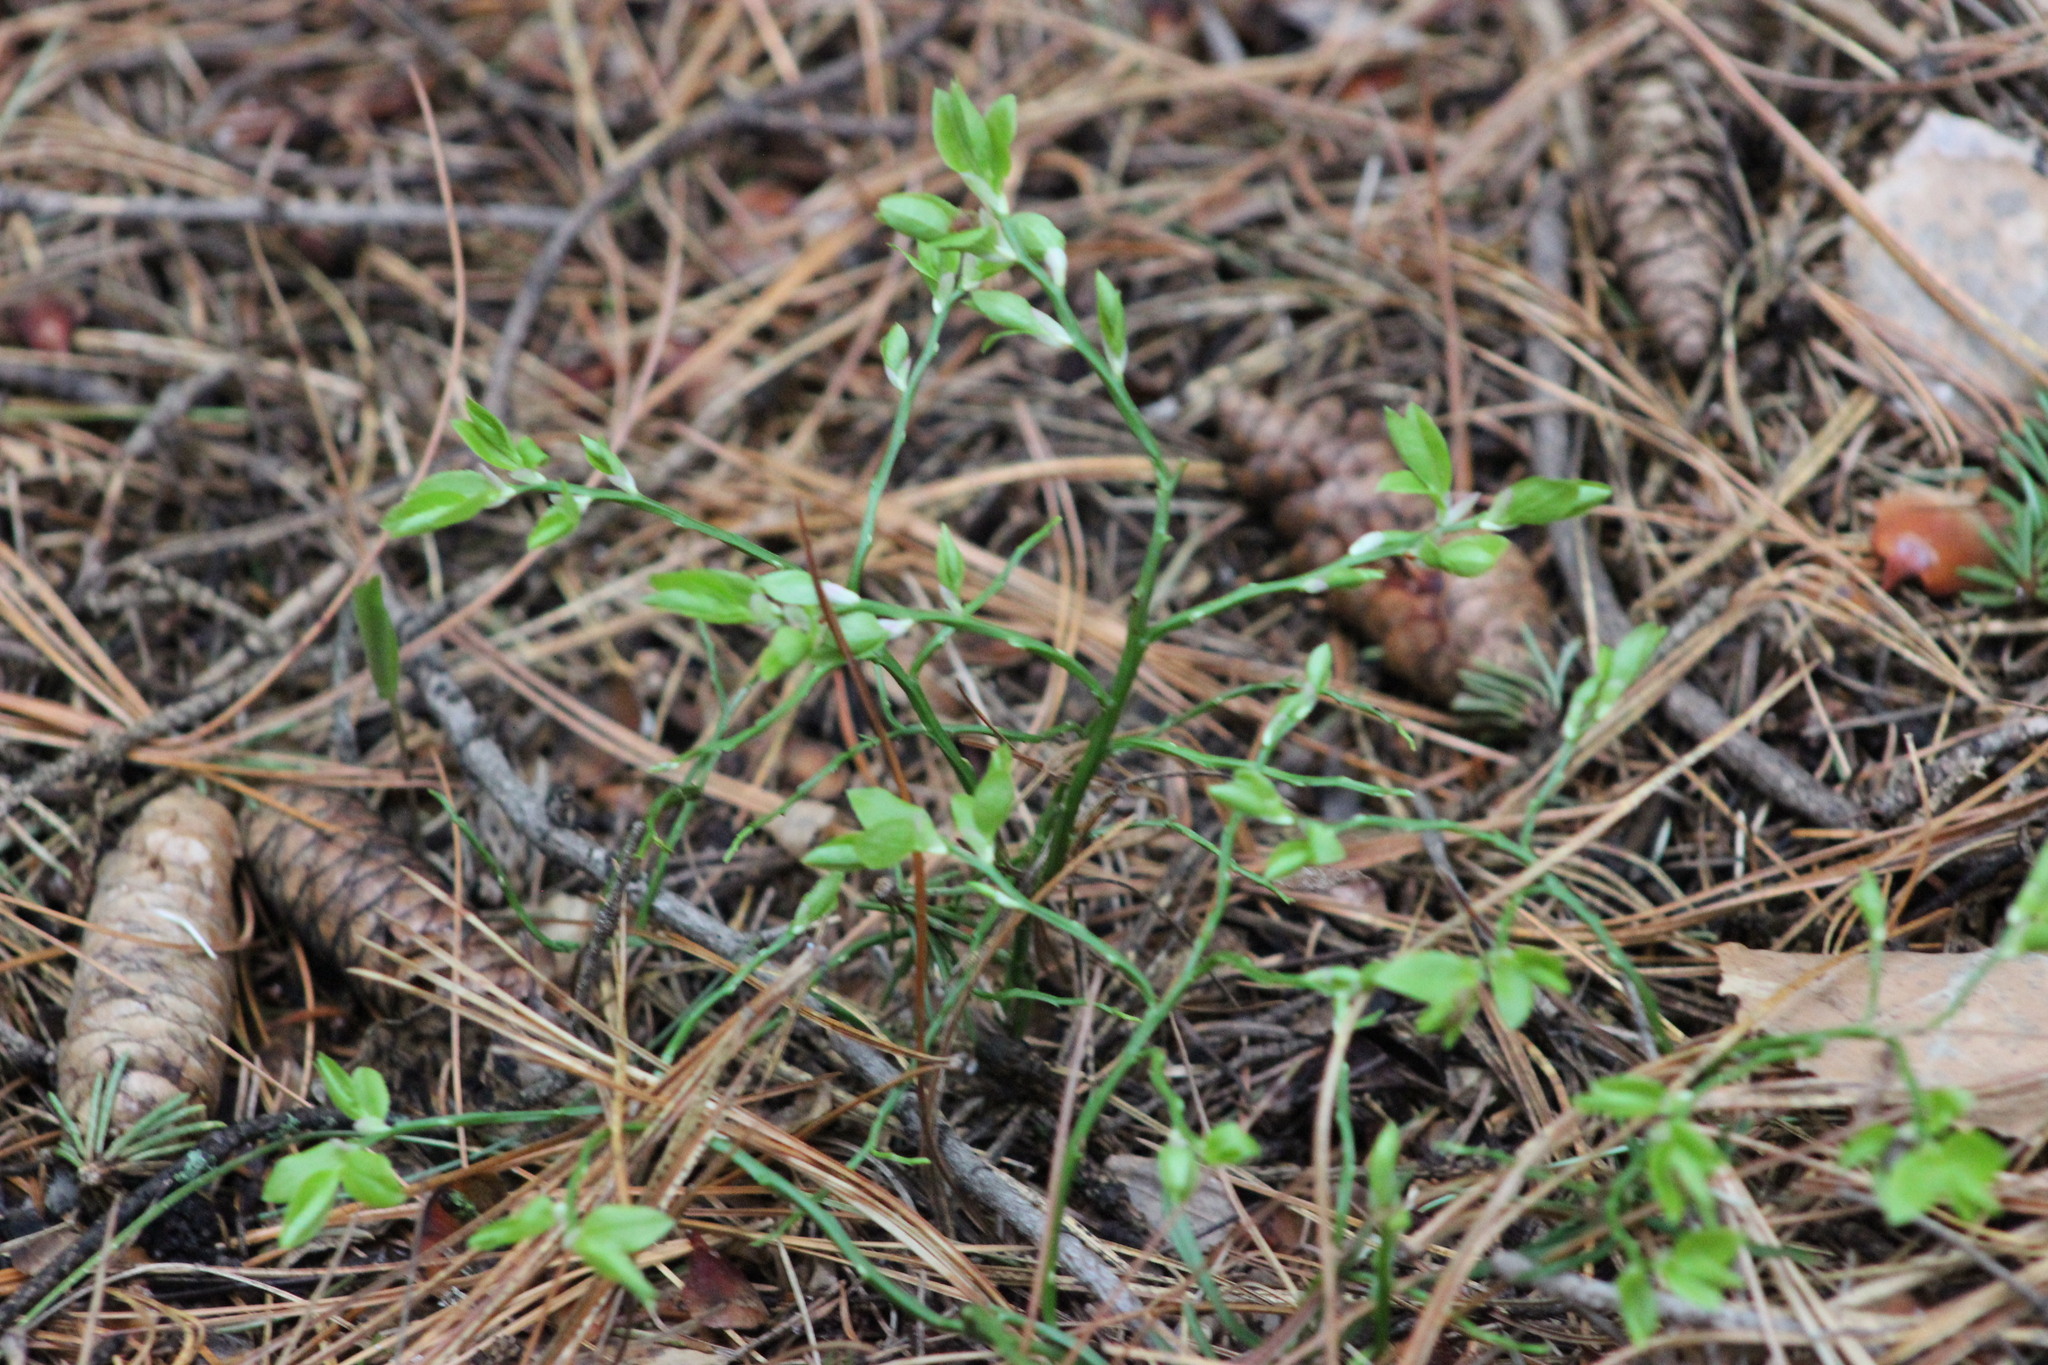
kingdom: Plantae
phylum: Tracheophyta
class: Magnoliopsida
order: Ericales
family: Ericaceae
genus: Vaccinium
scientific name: Vaccinium myrtillus
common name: Bilberry
